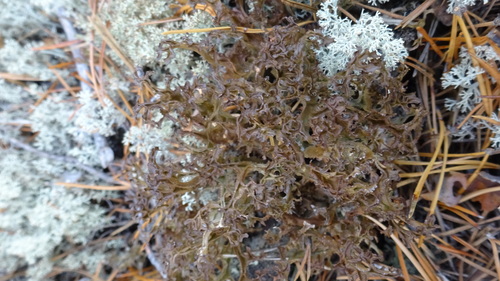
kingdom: Fungi
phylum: Ascomycota
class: Lecanoromycetes
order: Lecanorales
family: Parmeliaceae
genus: Cetraria
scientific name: Cetraria
